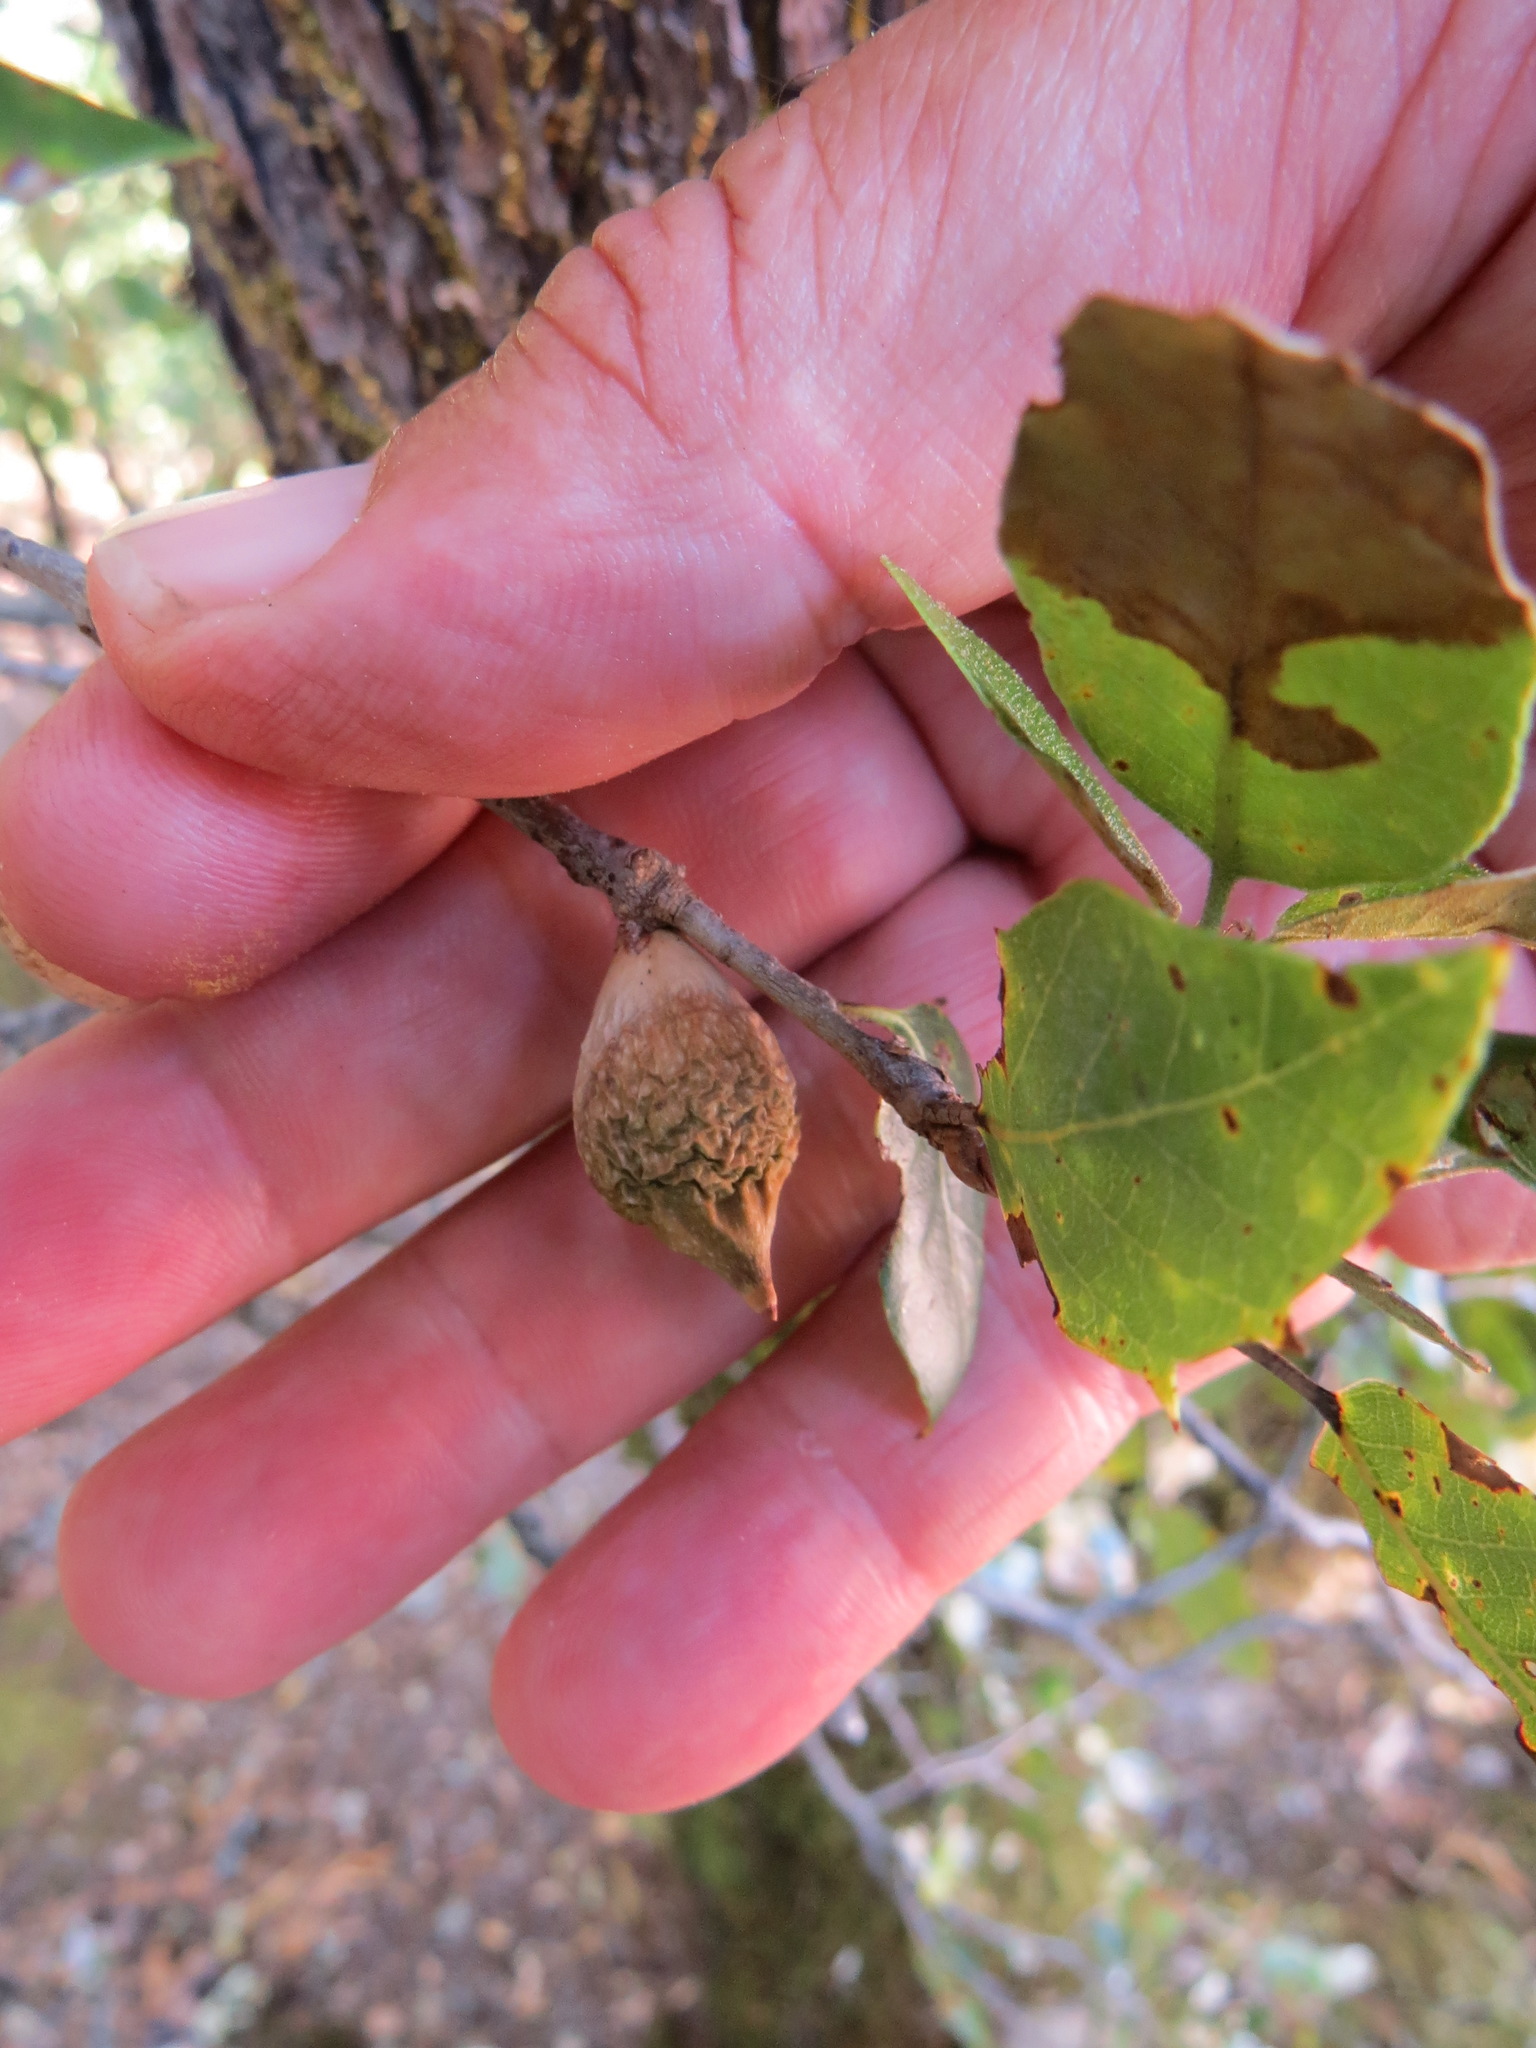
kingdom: Animalia
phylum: Arthropoda
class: Insecta
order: Hymenoptera
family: Cynipidae
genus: Heteroecus
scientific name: Heteroecus pacificus
